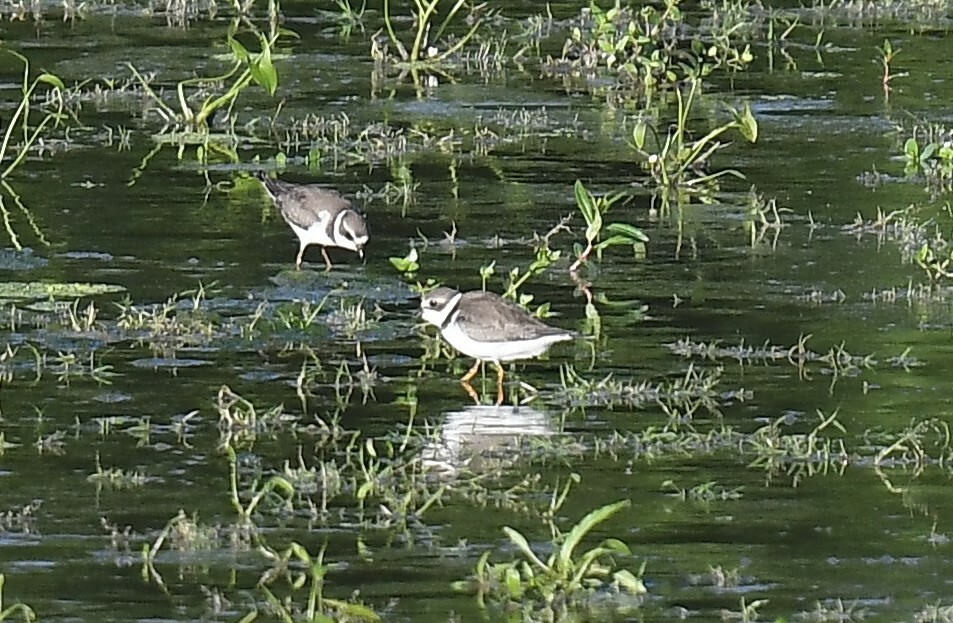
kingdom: Animalia
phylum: Chordata
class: Aves
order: Charadriiformes
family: Charadriidae
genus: Charadrius
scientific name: Charadrius semipalmatus
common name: Semipalmated plover
